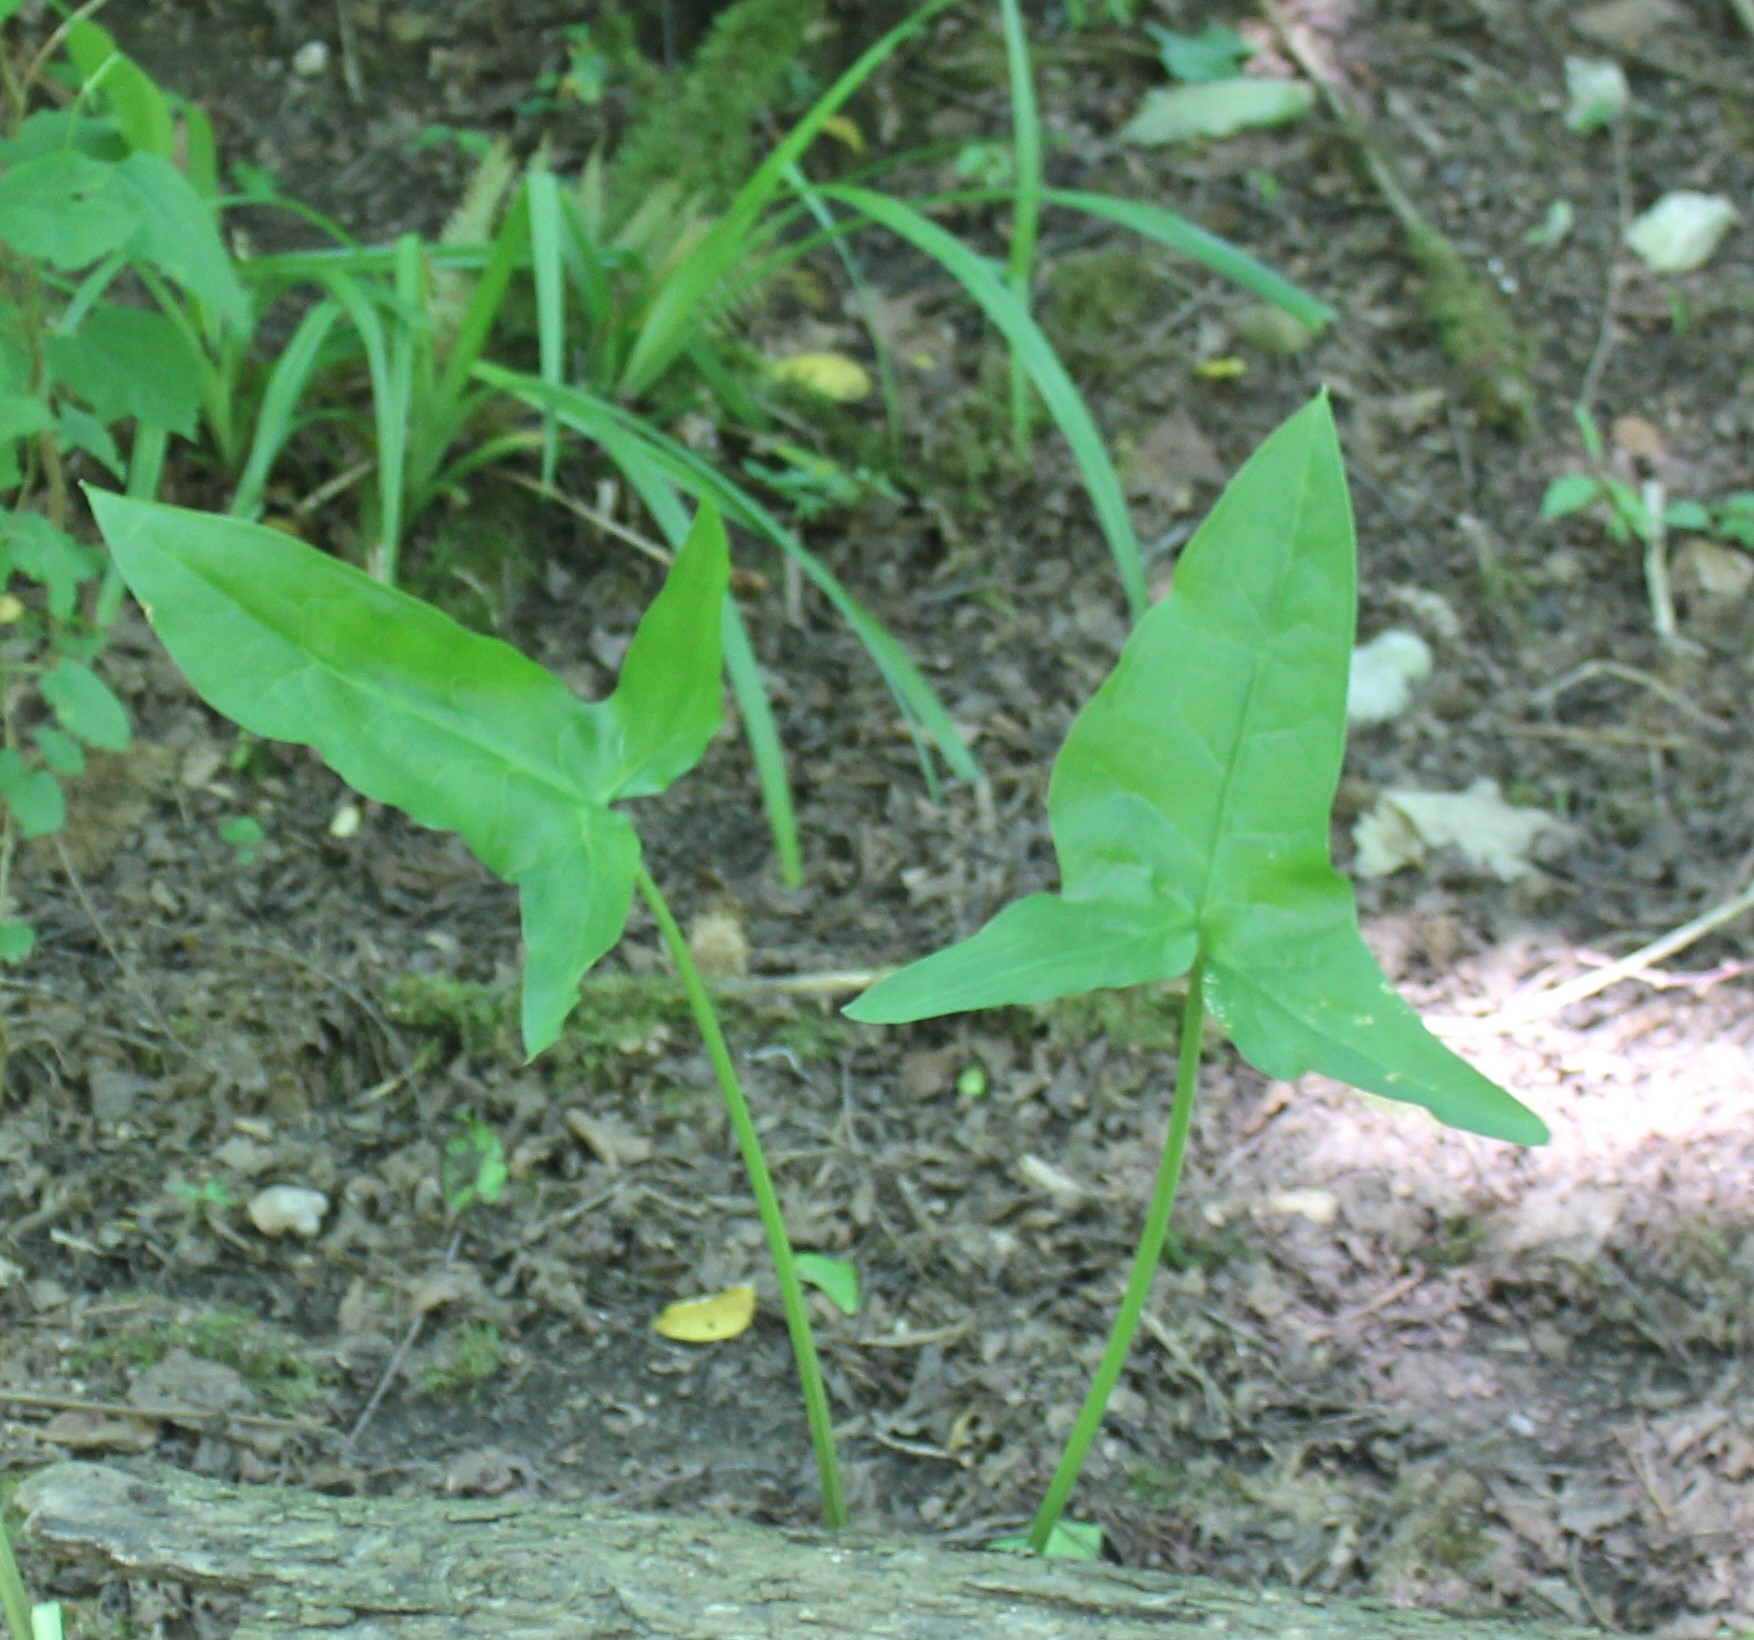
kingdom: Plantae
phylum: Tracheophyta
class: Liliopsida
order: Alismatales
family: Araceae
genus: Arum
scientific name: Arum italicum
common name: Italian lords-and-ladies
